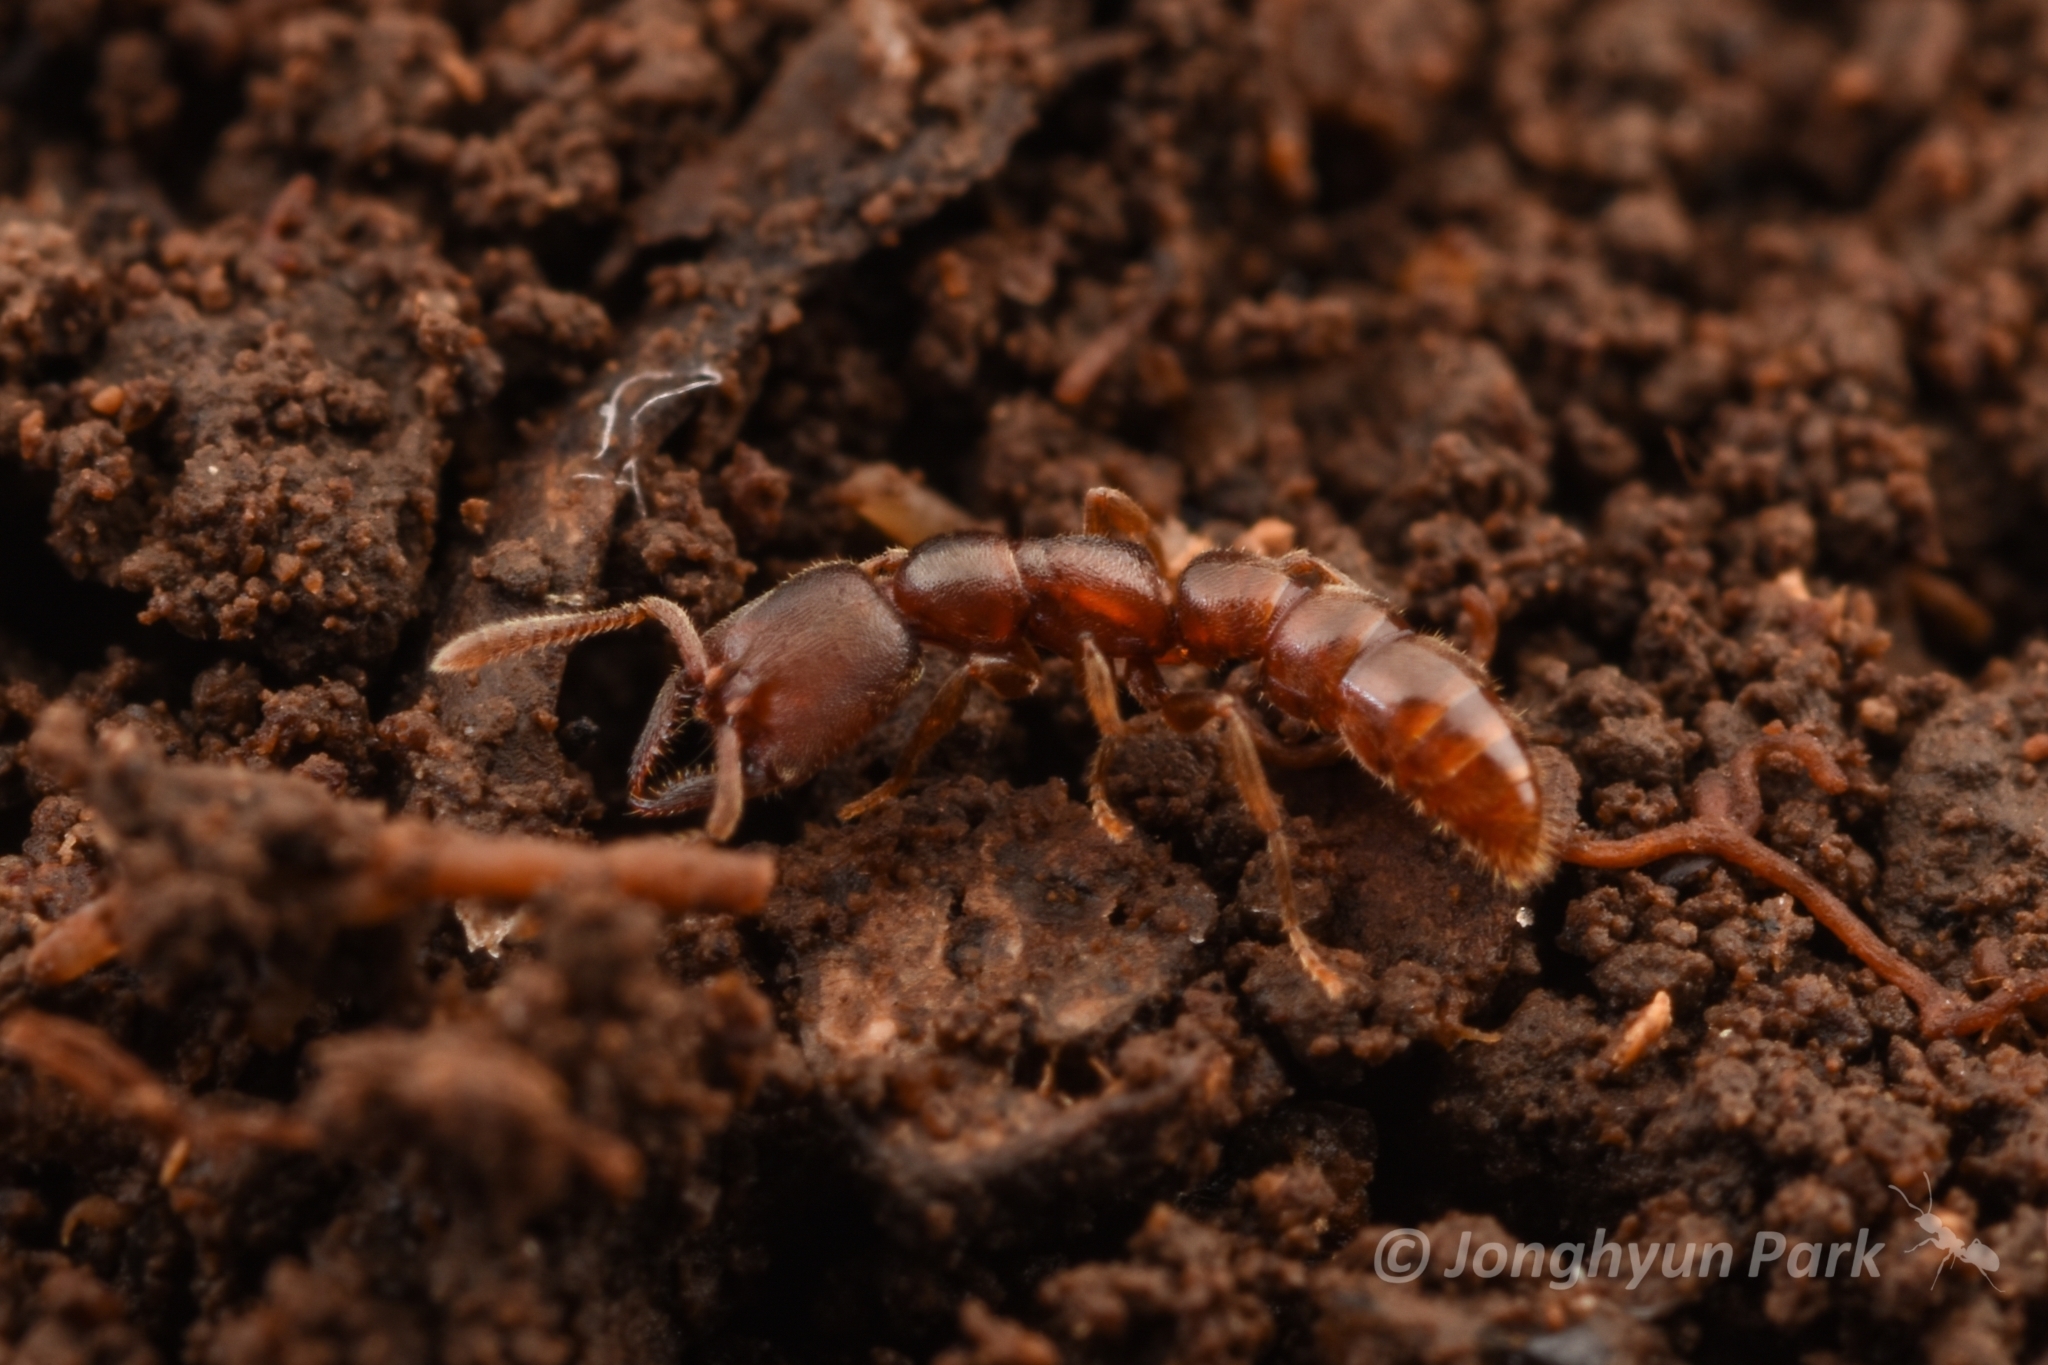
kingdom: Animalia
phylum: Arthropoda
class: Insecta
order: Hymenoptera
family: Formicidae
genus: Stigmatomma
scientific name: Stigmatomma silvestrii
